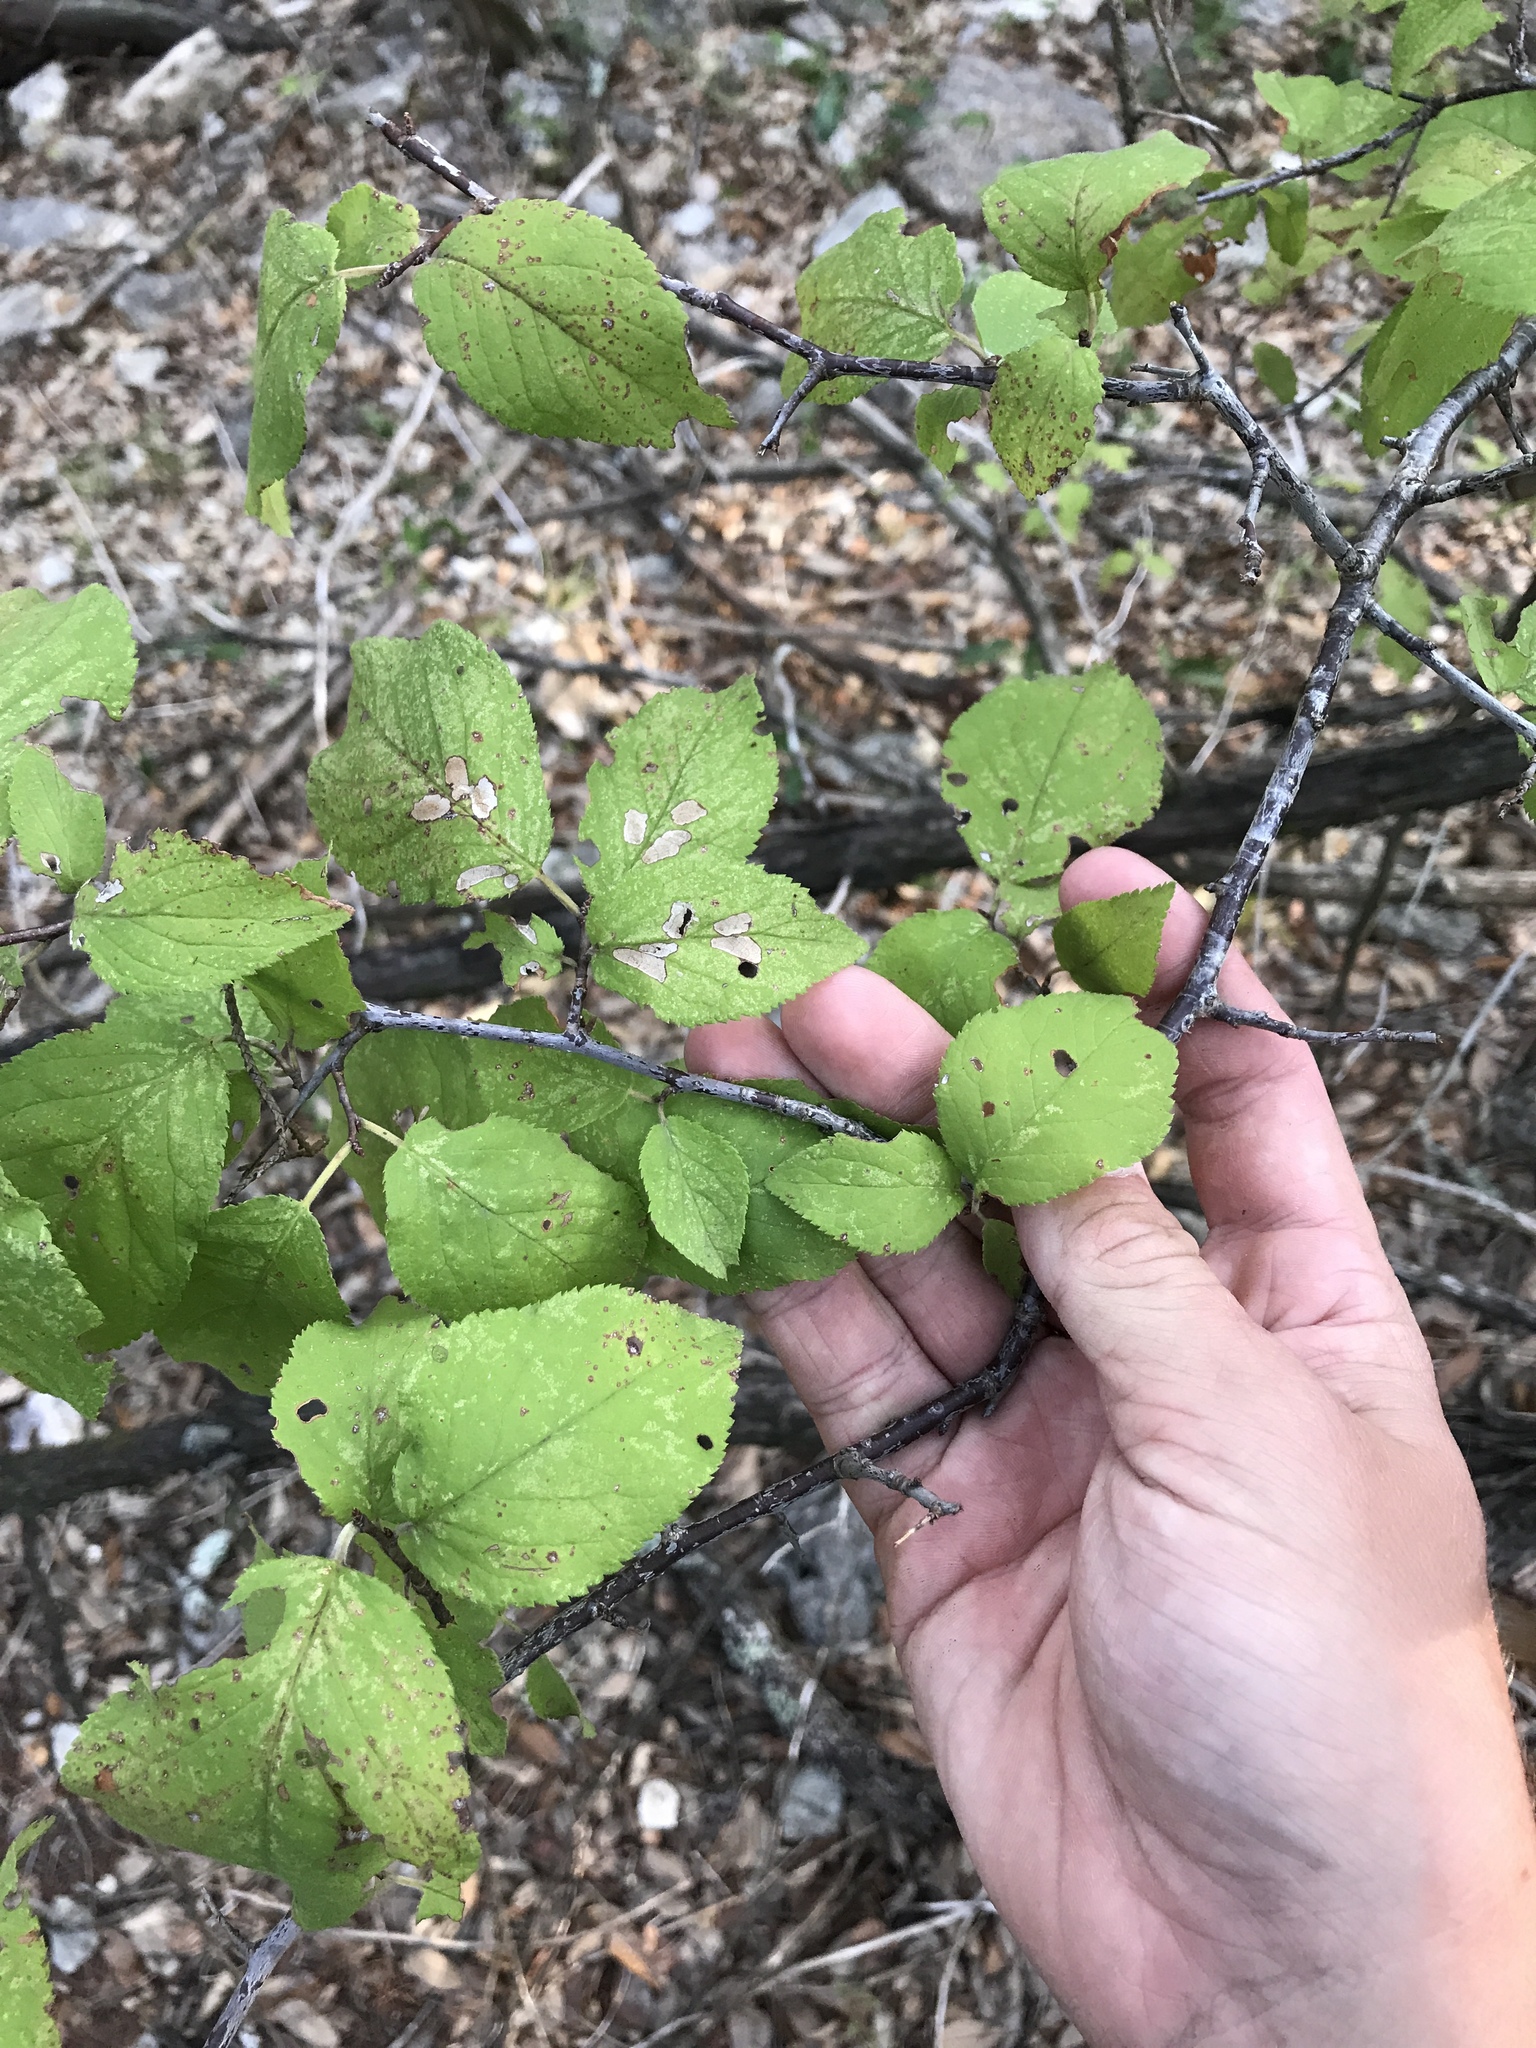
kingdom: Plantae
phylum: Tracheophyta
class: Magnoliopsida
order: Rosales
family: Rosaceae
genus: Prunus
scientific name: Prunus mexicana
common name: Mexican plum
